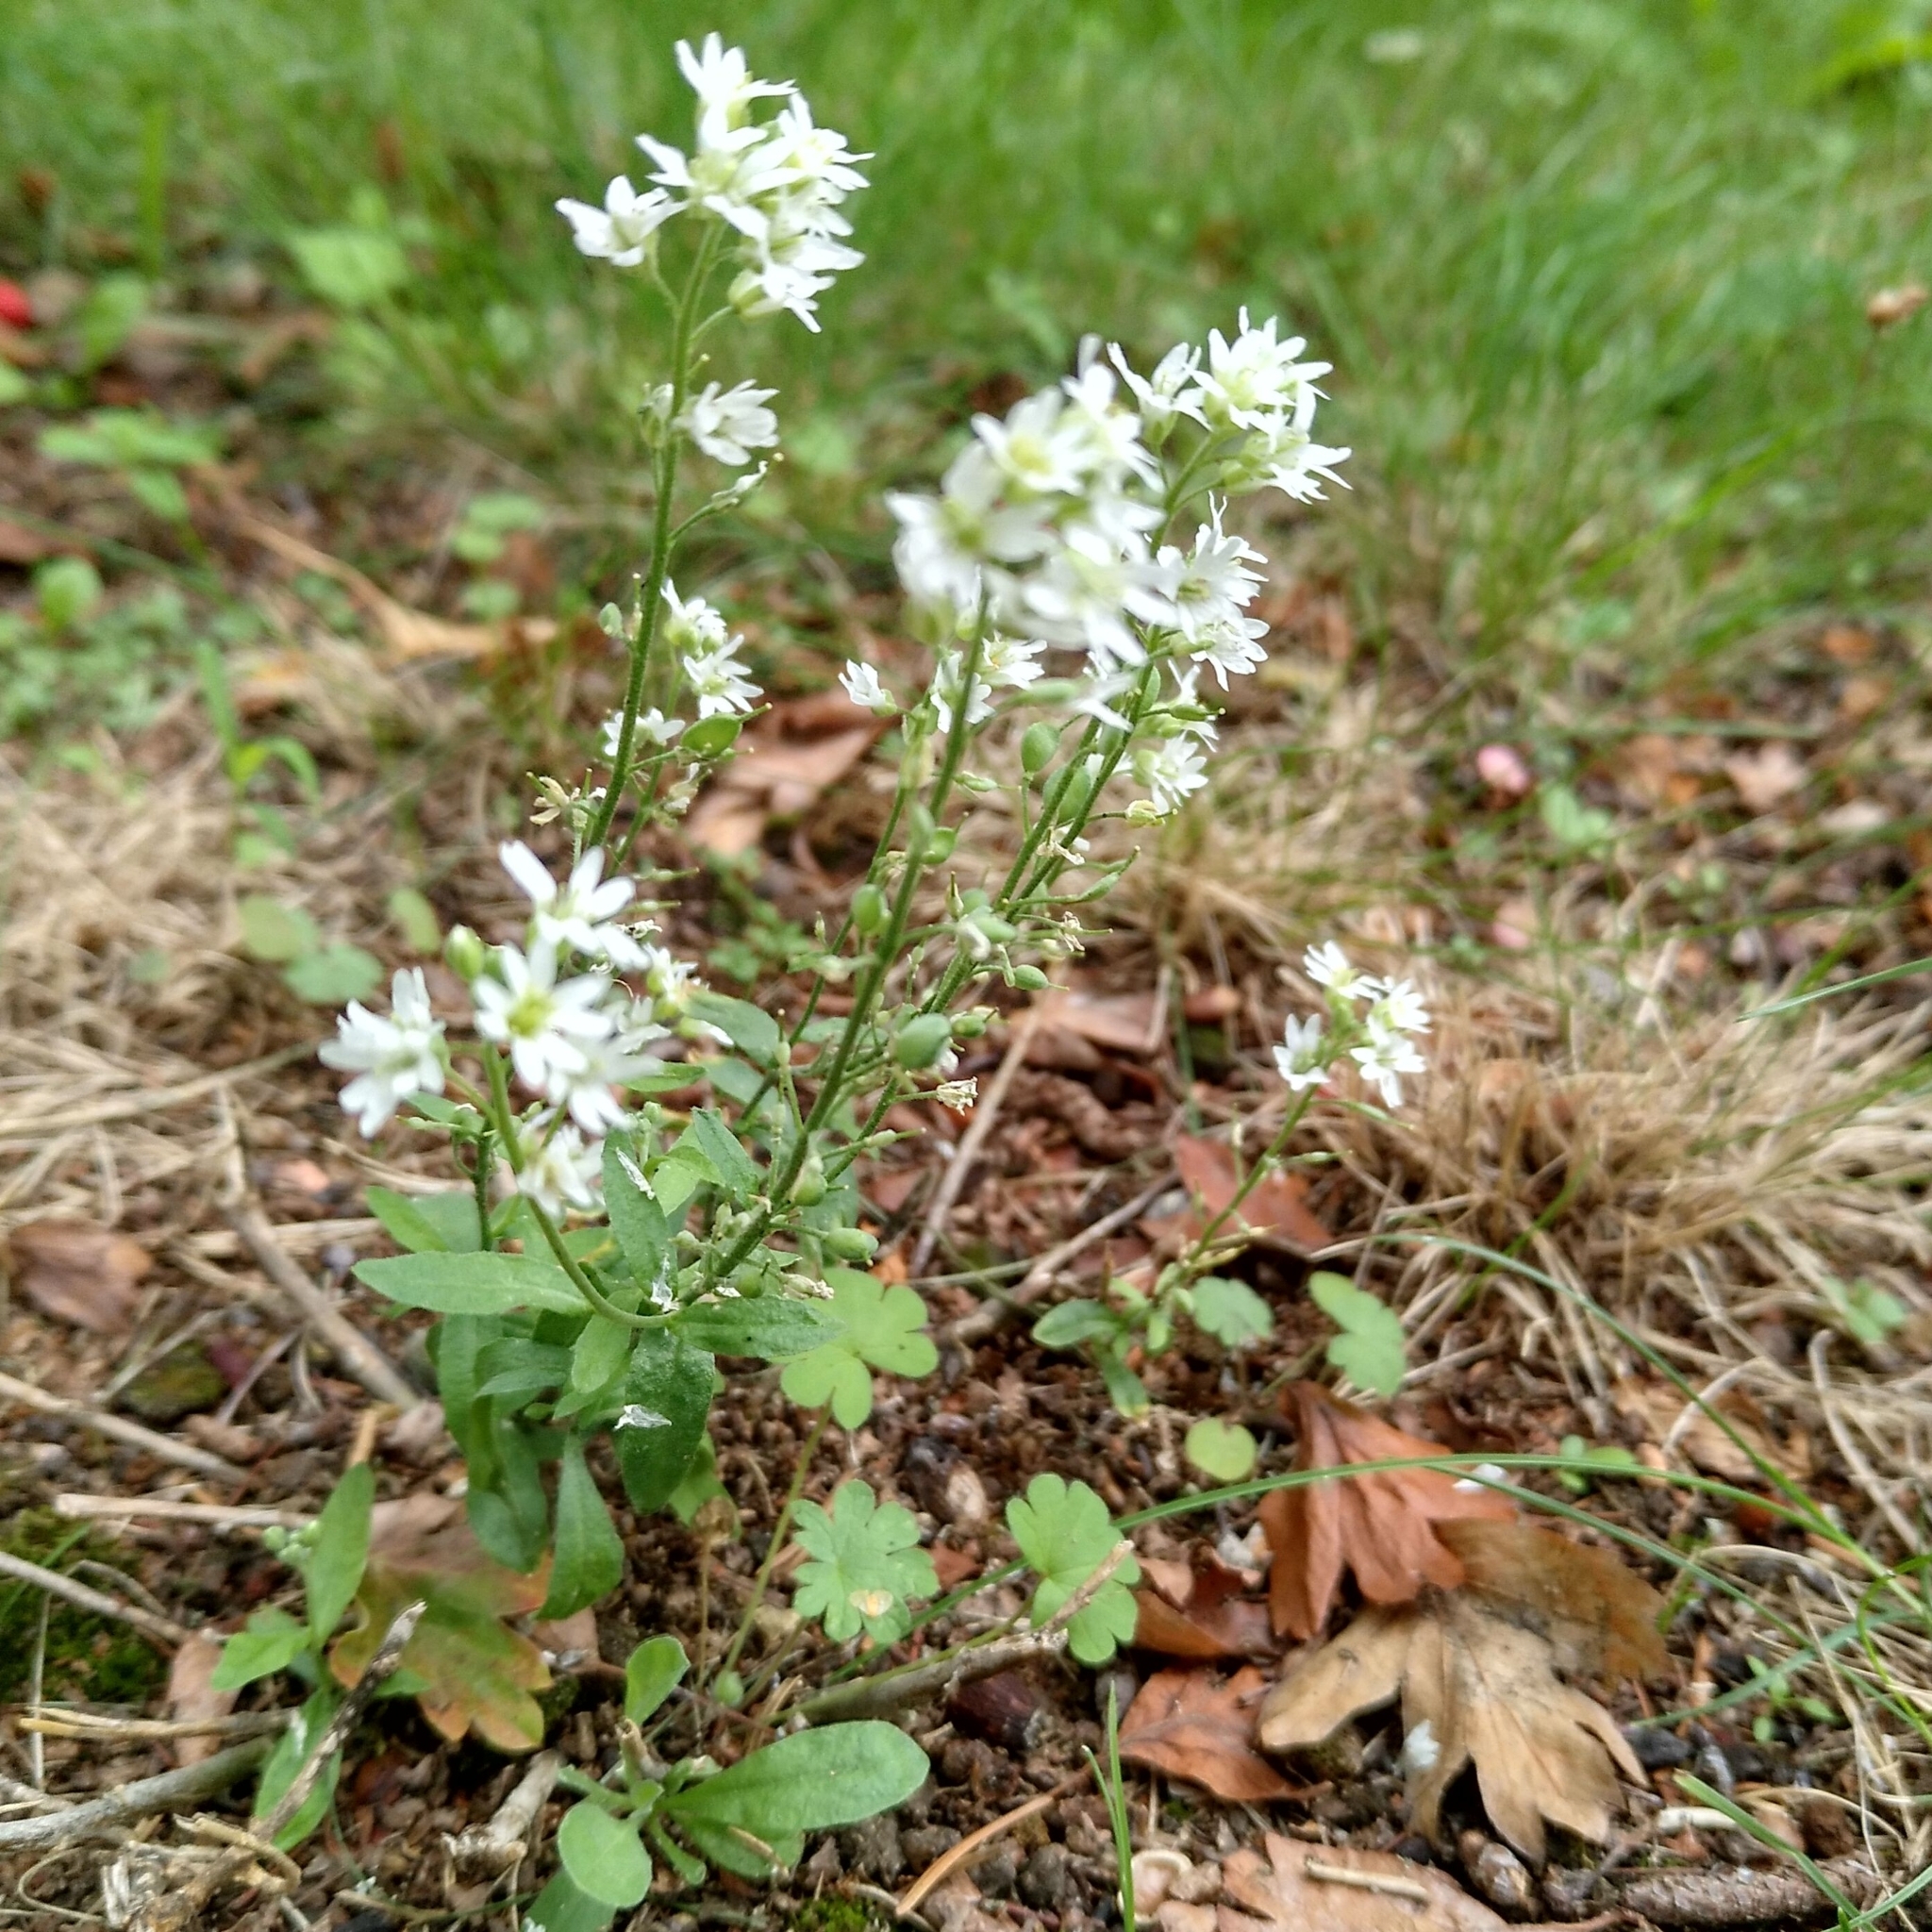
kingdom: Plantae
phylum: Tracheophyta
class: Magnoliopsida
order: Brassicales
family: Brassicaceae
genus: Berteroa
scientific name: Berteroa incana
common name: Hoary alison
